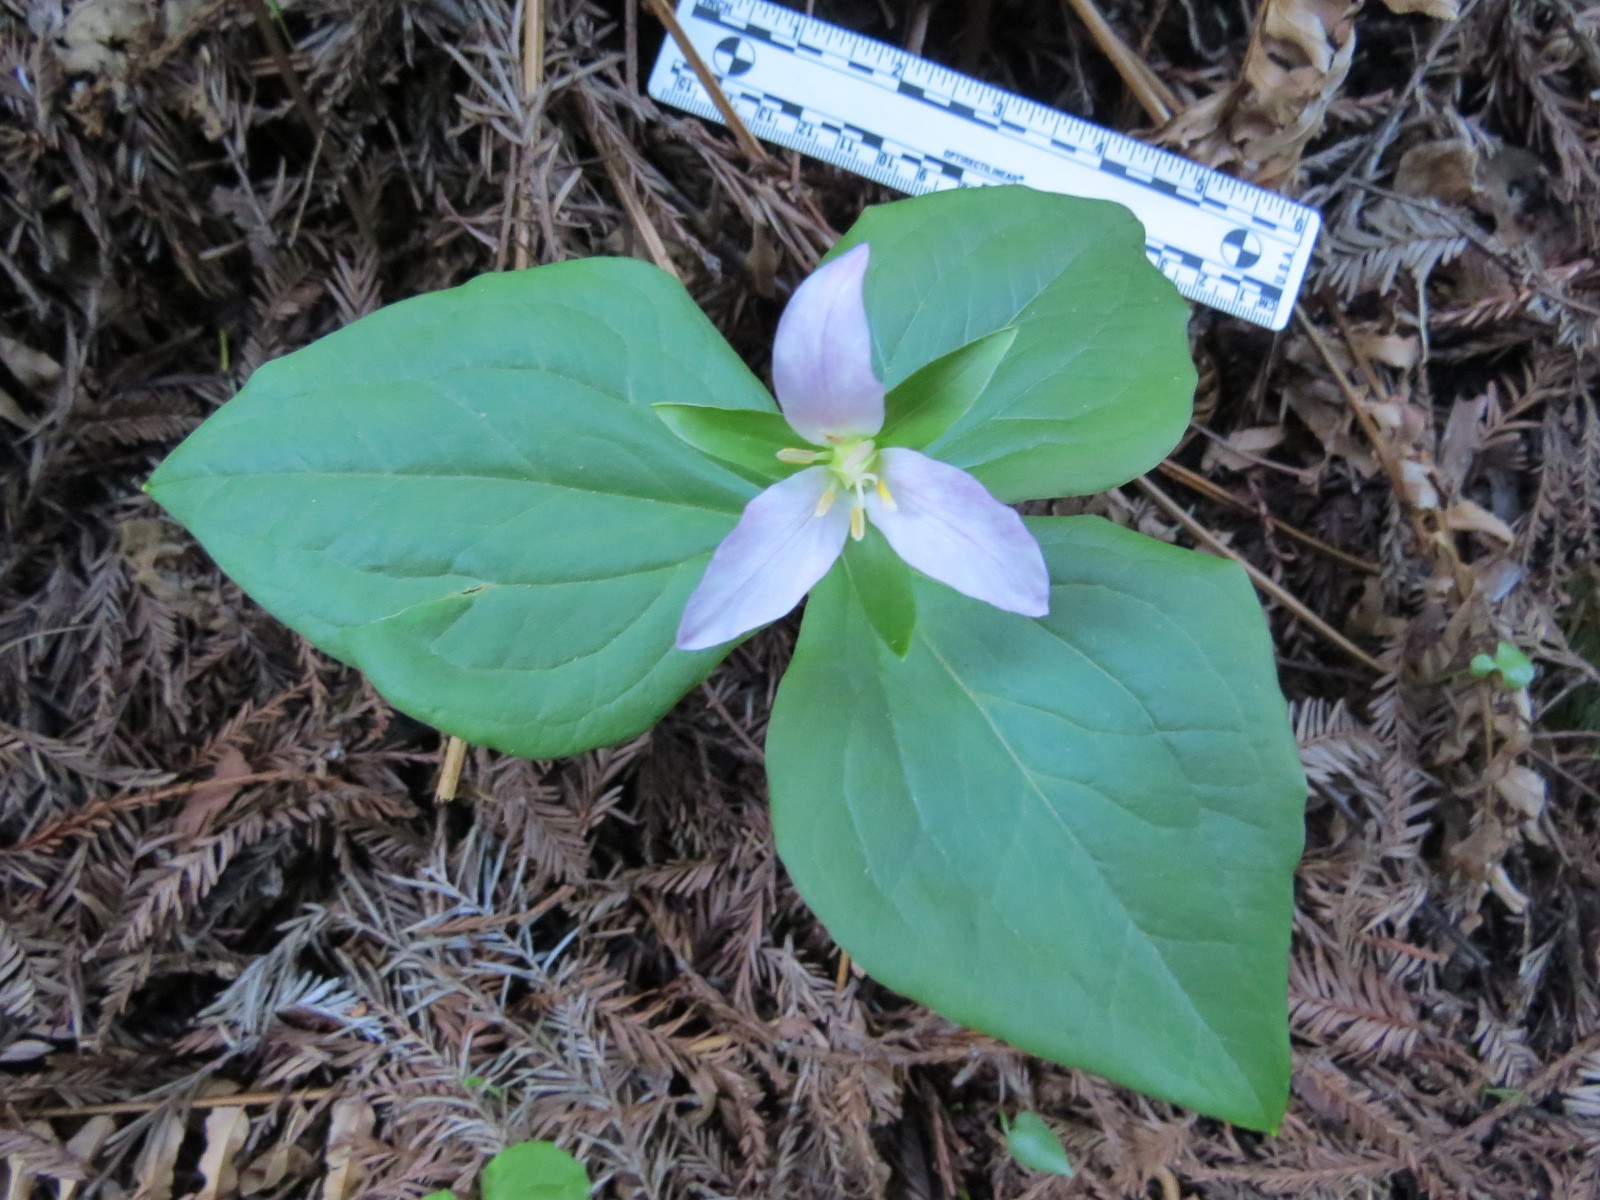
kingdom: Plantae
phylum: Tracheophyta
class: Liliopsida
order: Liliales
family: Melanthiaceae
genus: Trillium
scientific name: Trillium ovatum
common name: Pacific trillium
